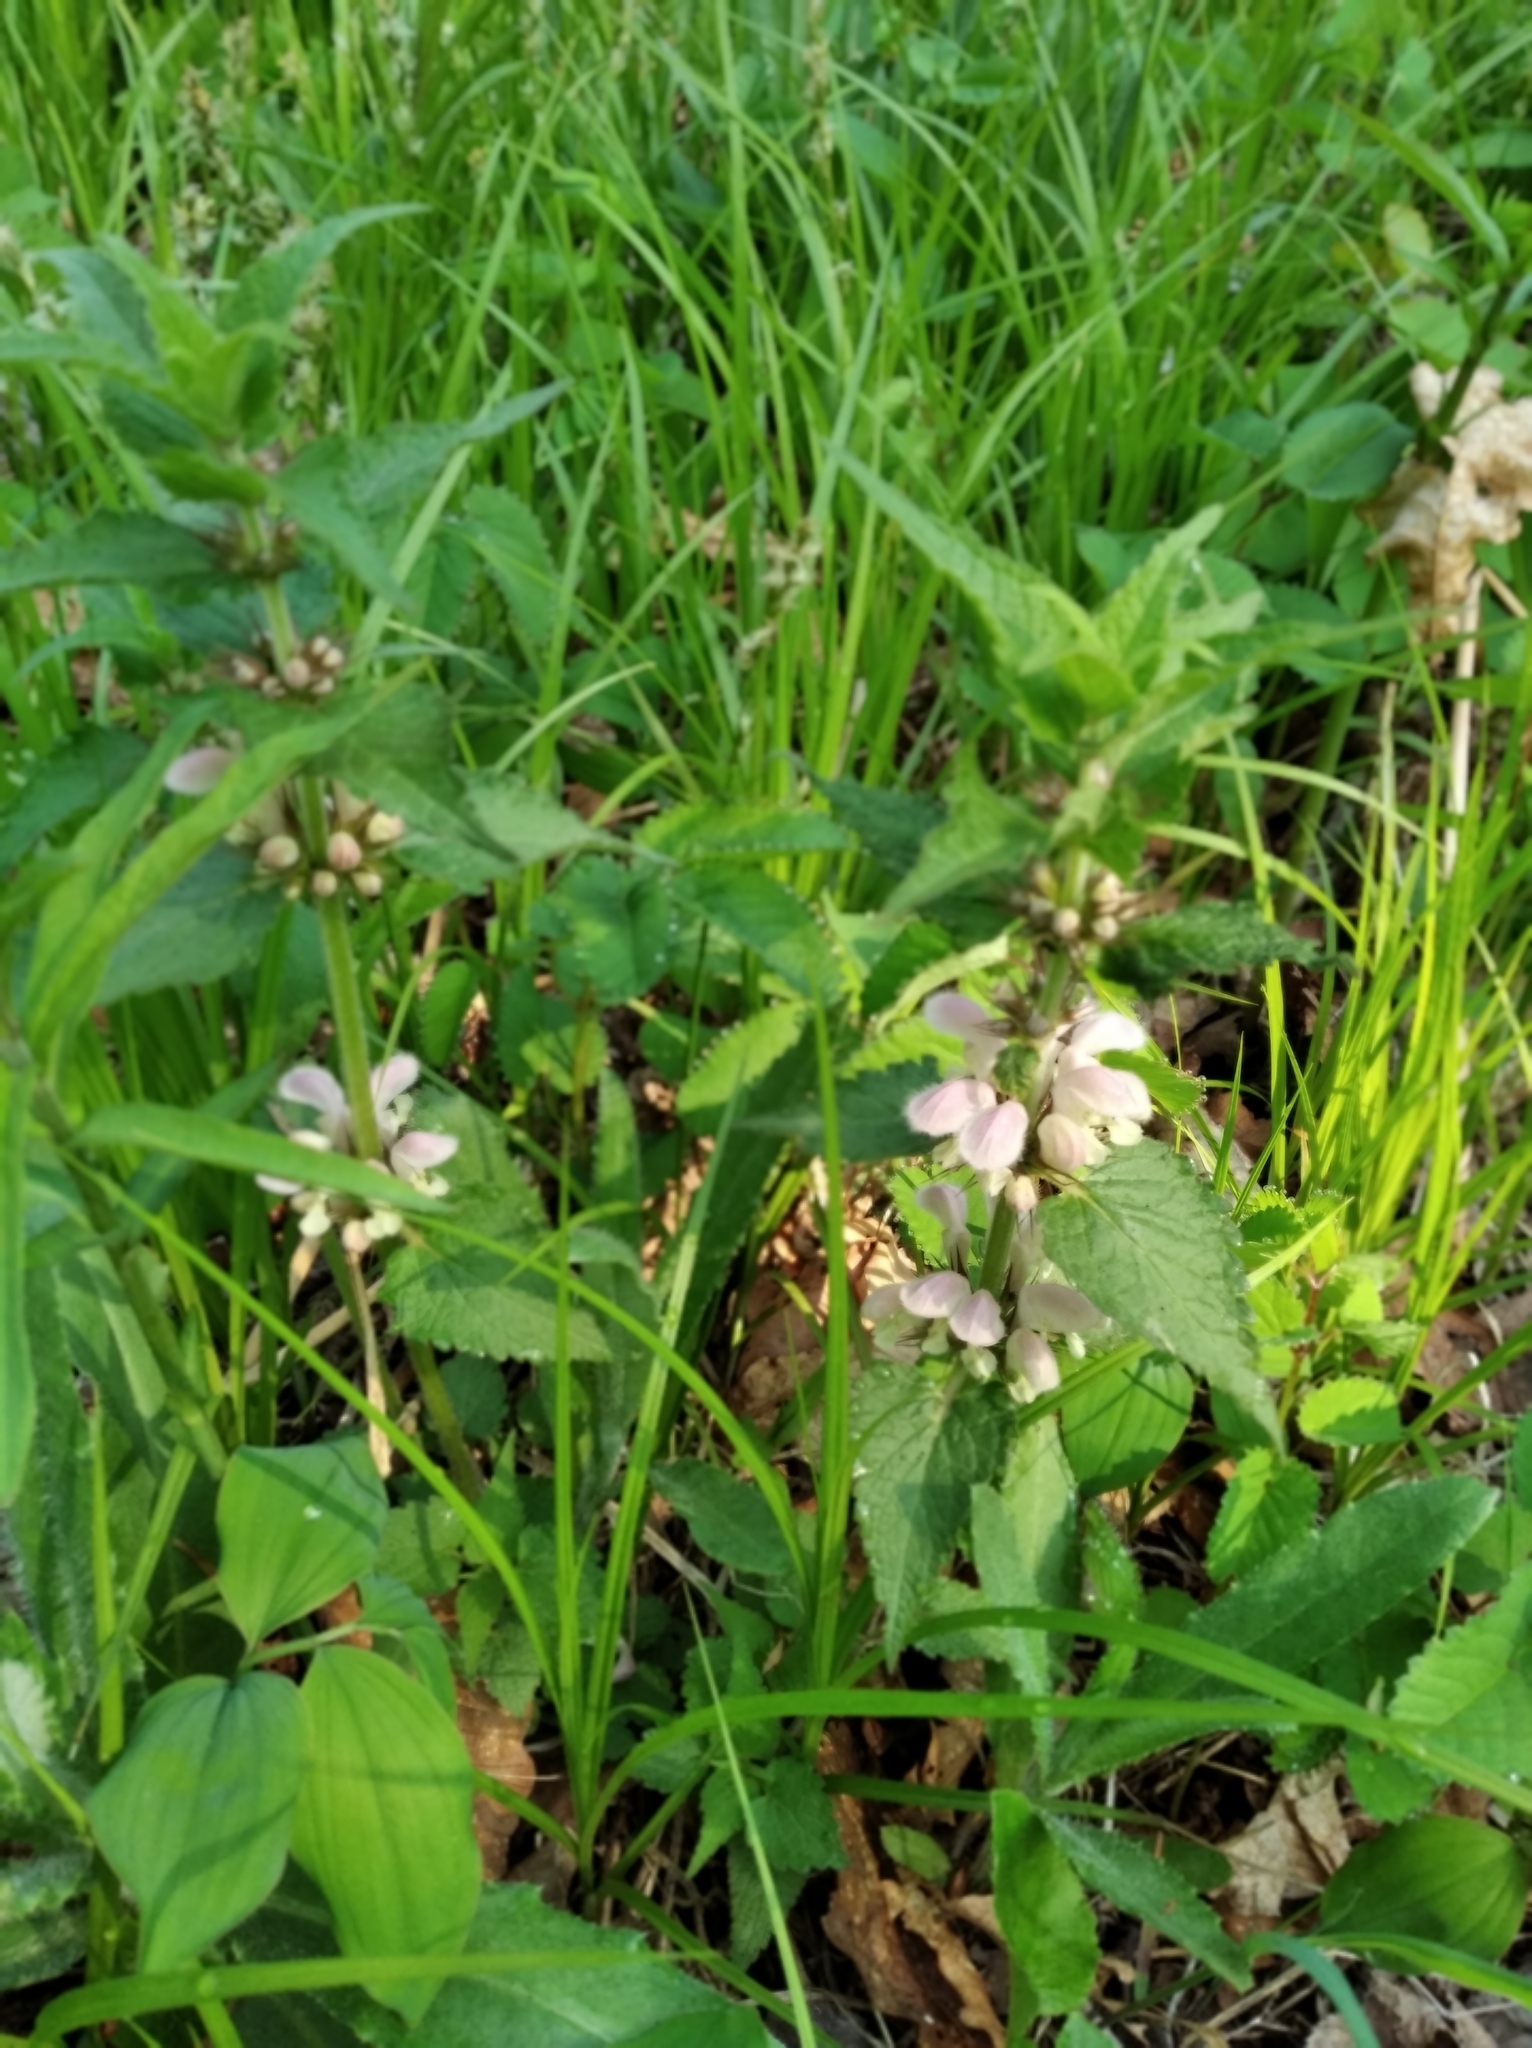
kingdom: Plantae
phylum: Tracheophyta
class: Magnoliopsida
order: Lamiales
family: Lamiaceae
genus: Lamium
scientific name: Lamium album
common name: White dead-nettle
